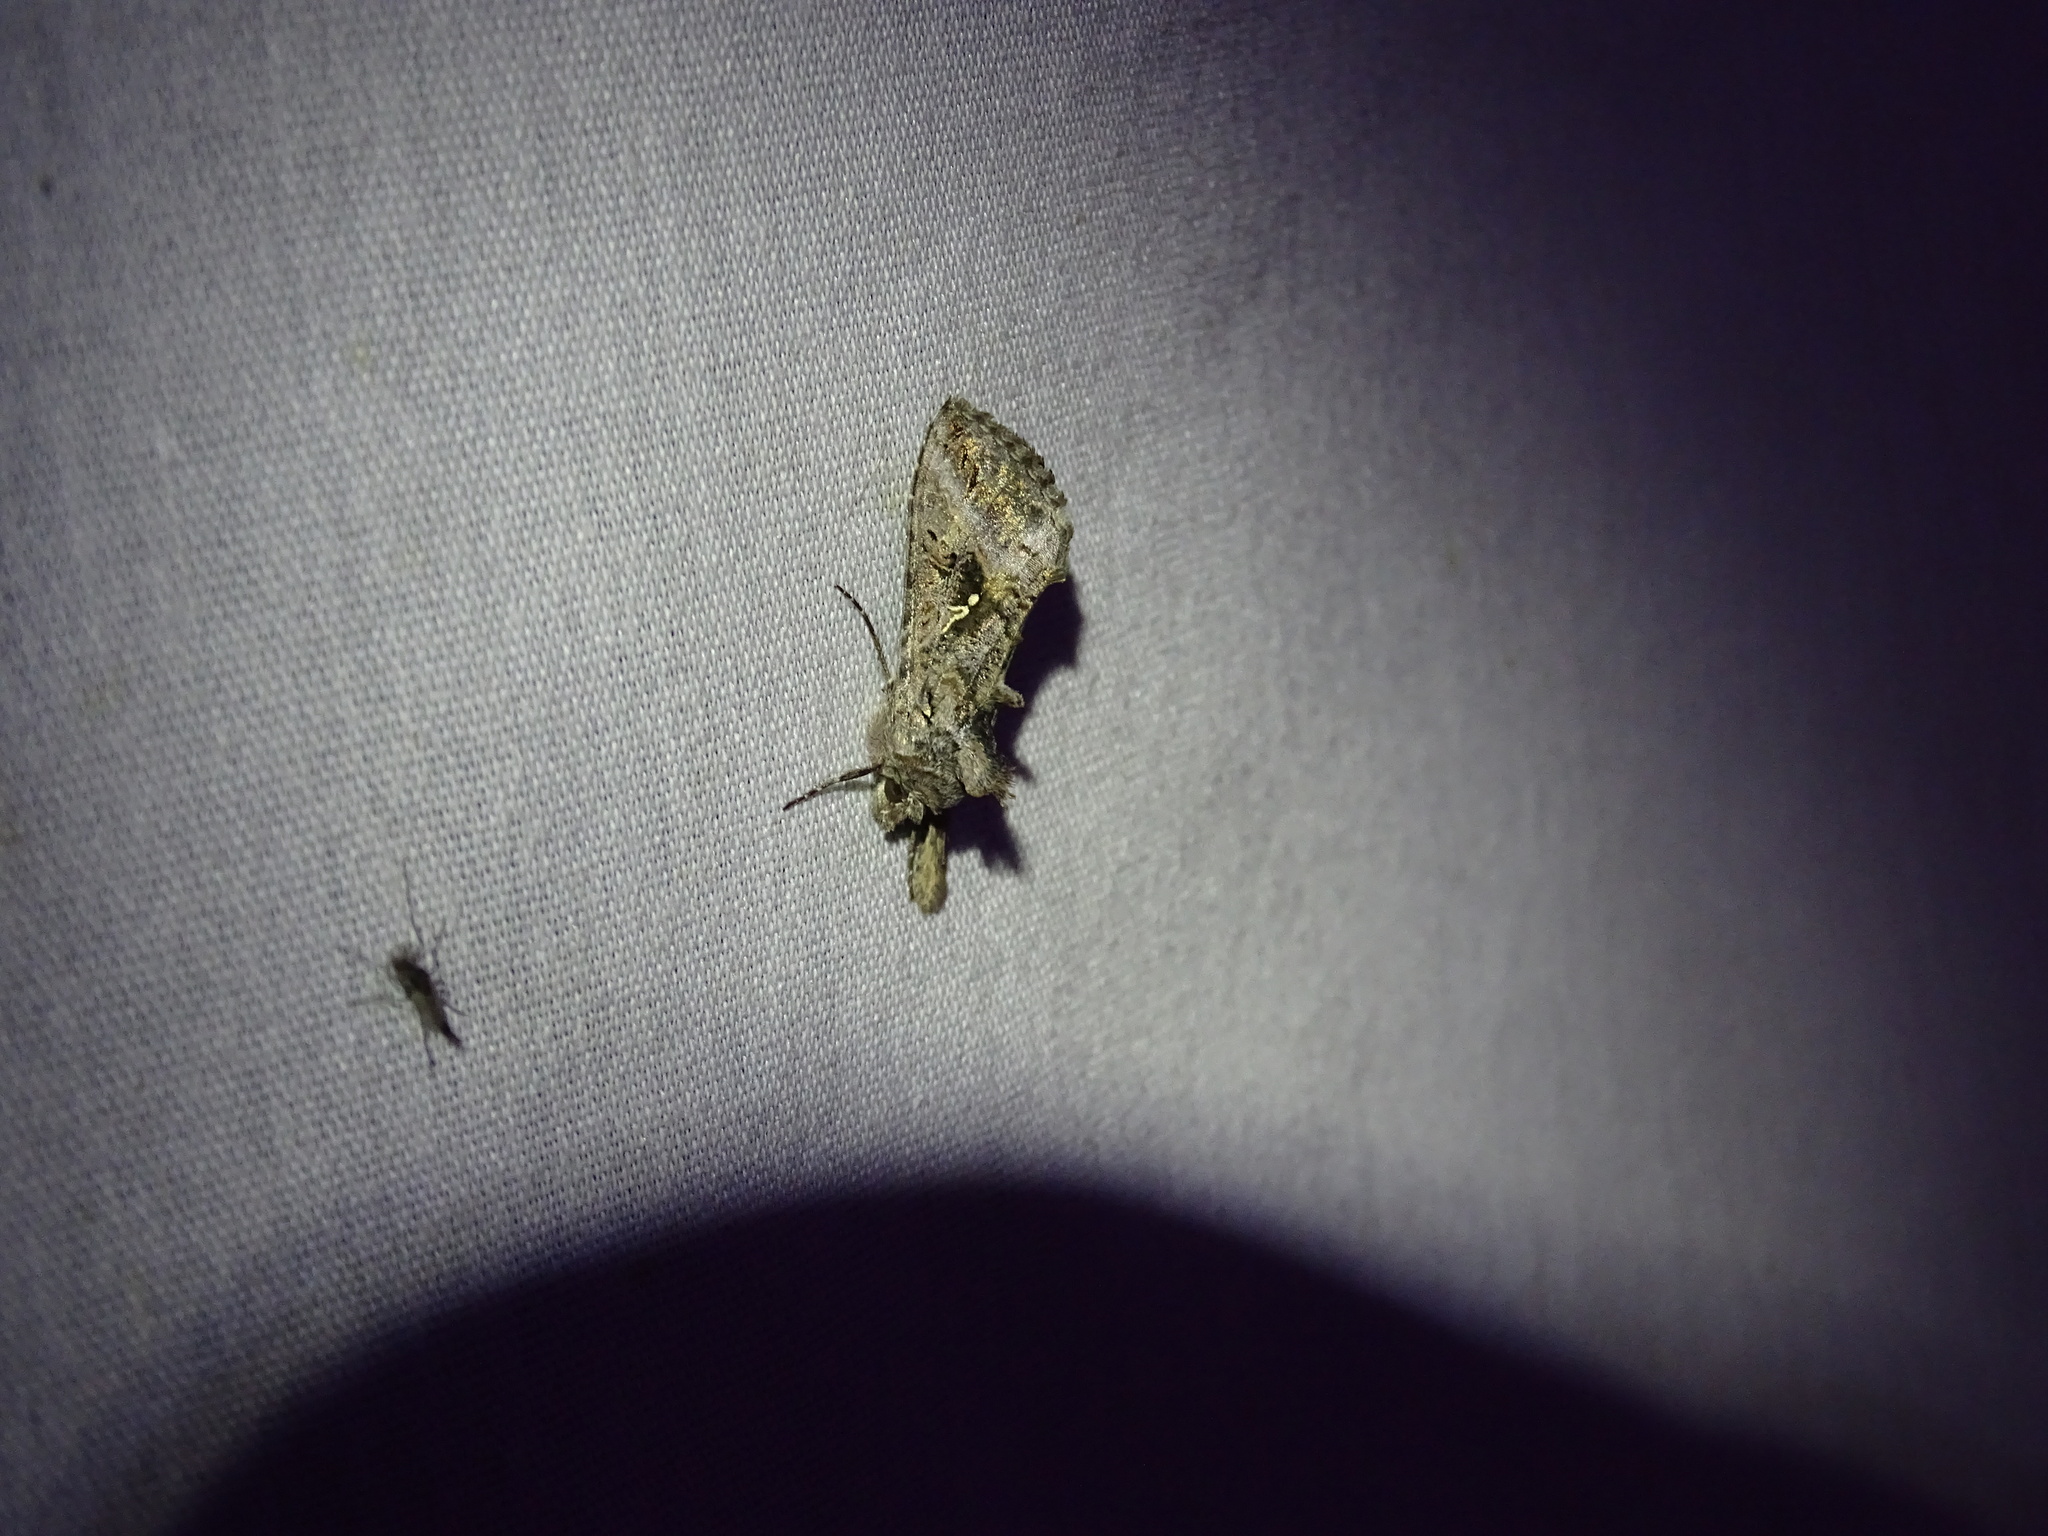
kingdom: Animalia
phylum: Arthropoda
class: Insecta
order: Lepidoptera
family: Noctuidae
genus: Rachiplusia
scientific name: Rachiplusia ou
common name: Gray looper moth
